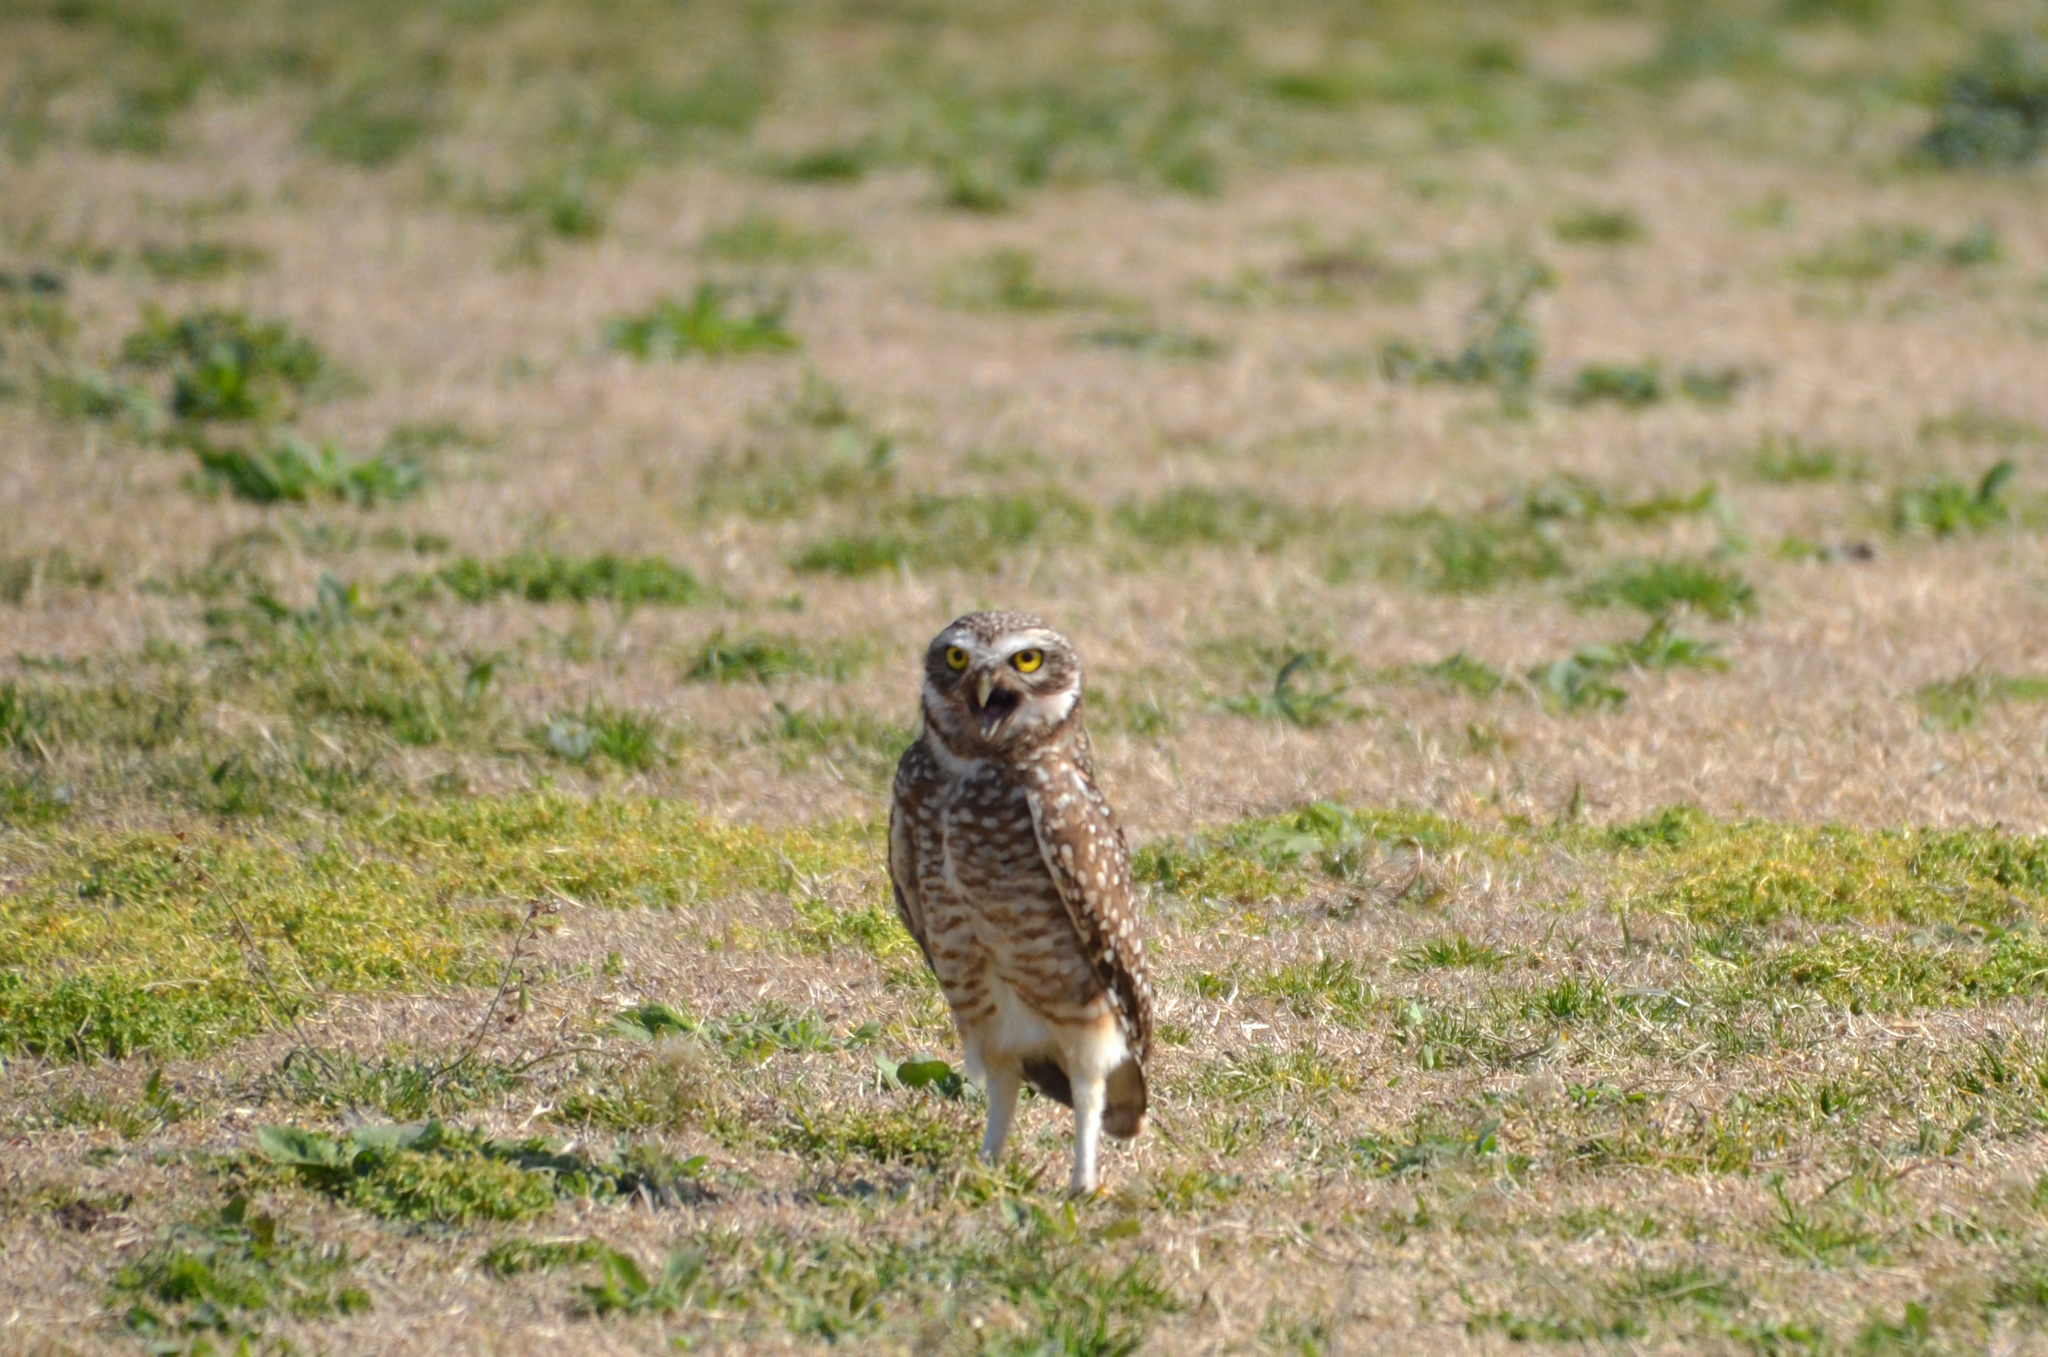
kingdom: Animalia
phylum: Chordata
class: Aves
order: Strigiformes
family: Strigidae
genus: Athene
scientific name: Athene cunicularia
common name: Burrowing owl
